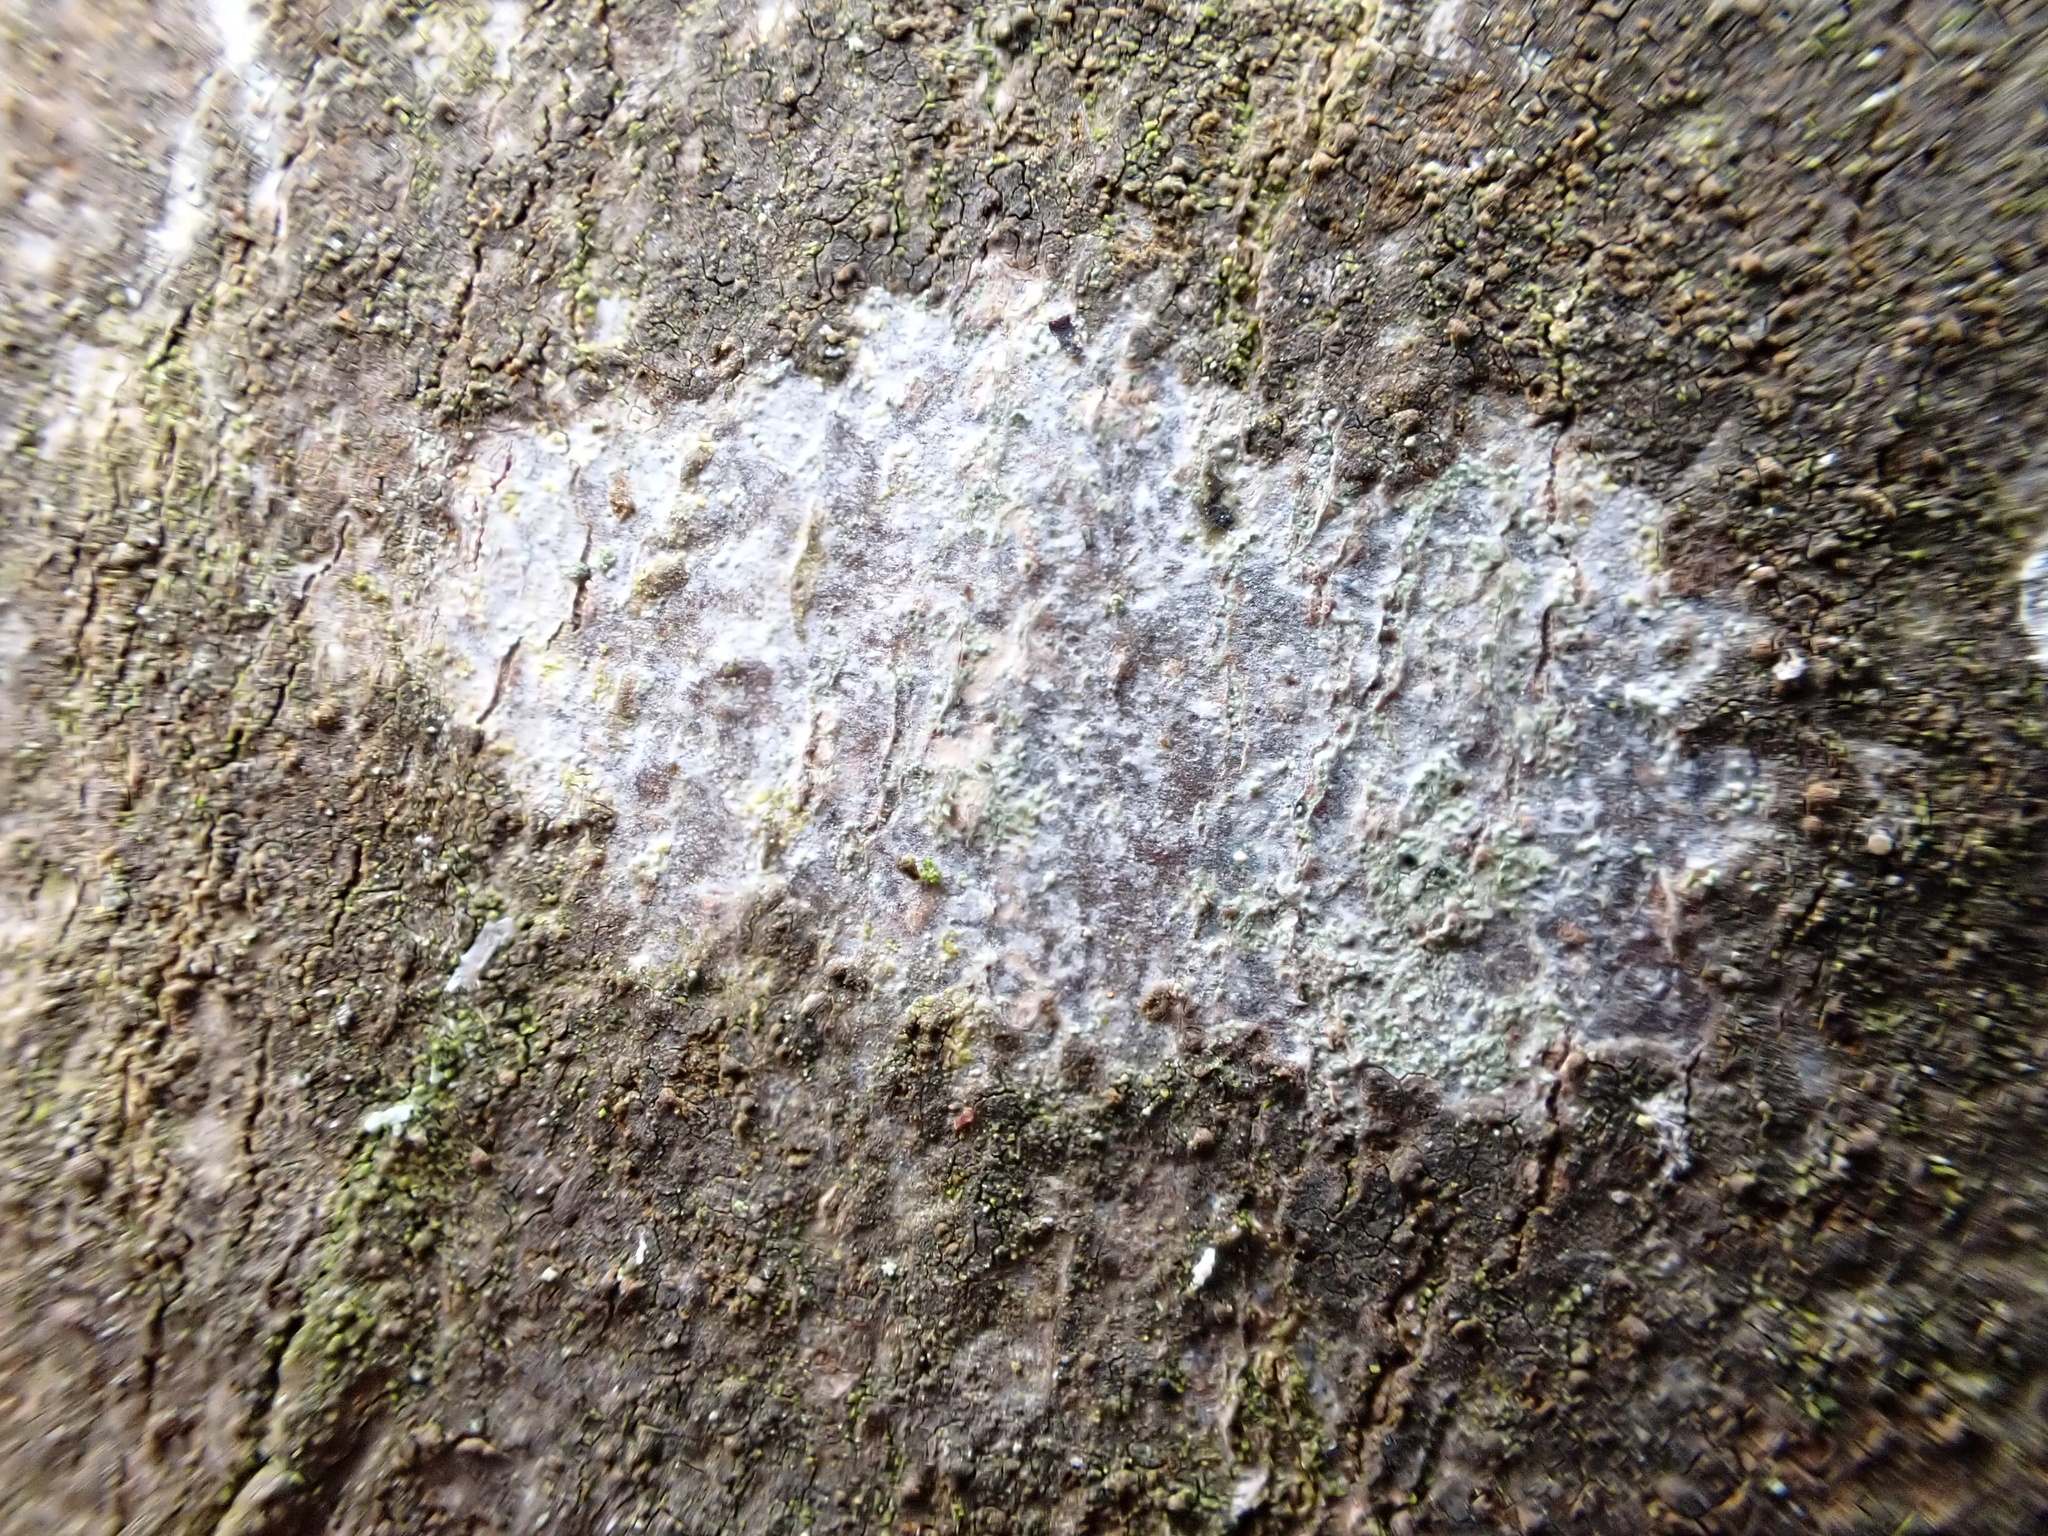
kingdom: Fungi
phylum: Ascomycota
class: Lecanoromycetes
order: Ostropales
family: Phlyctidaceae
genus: Phlyctis
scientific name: Phlyctis argena
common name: Whitewash lichen
